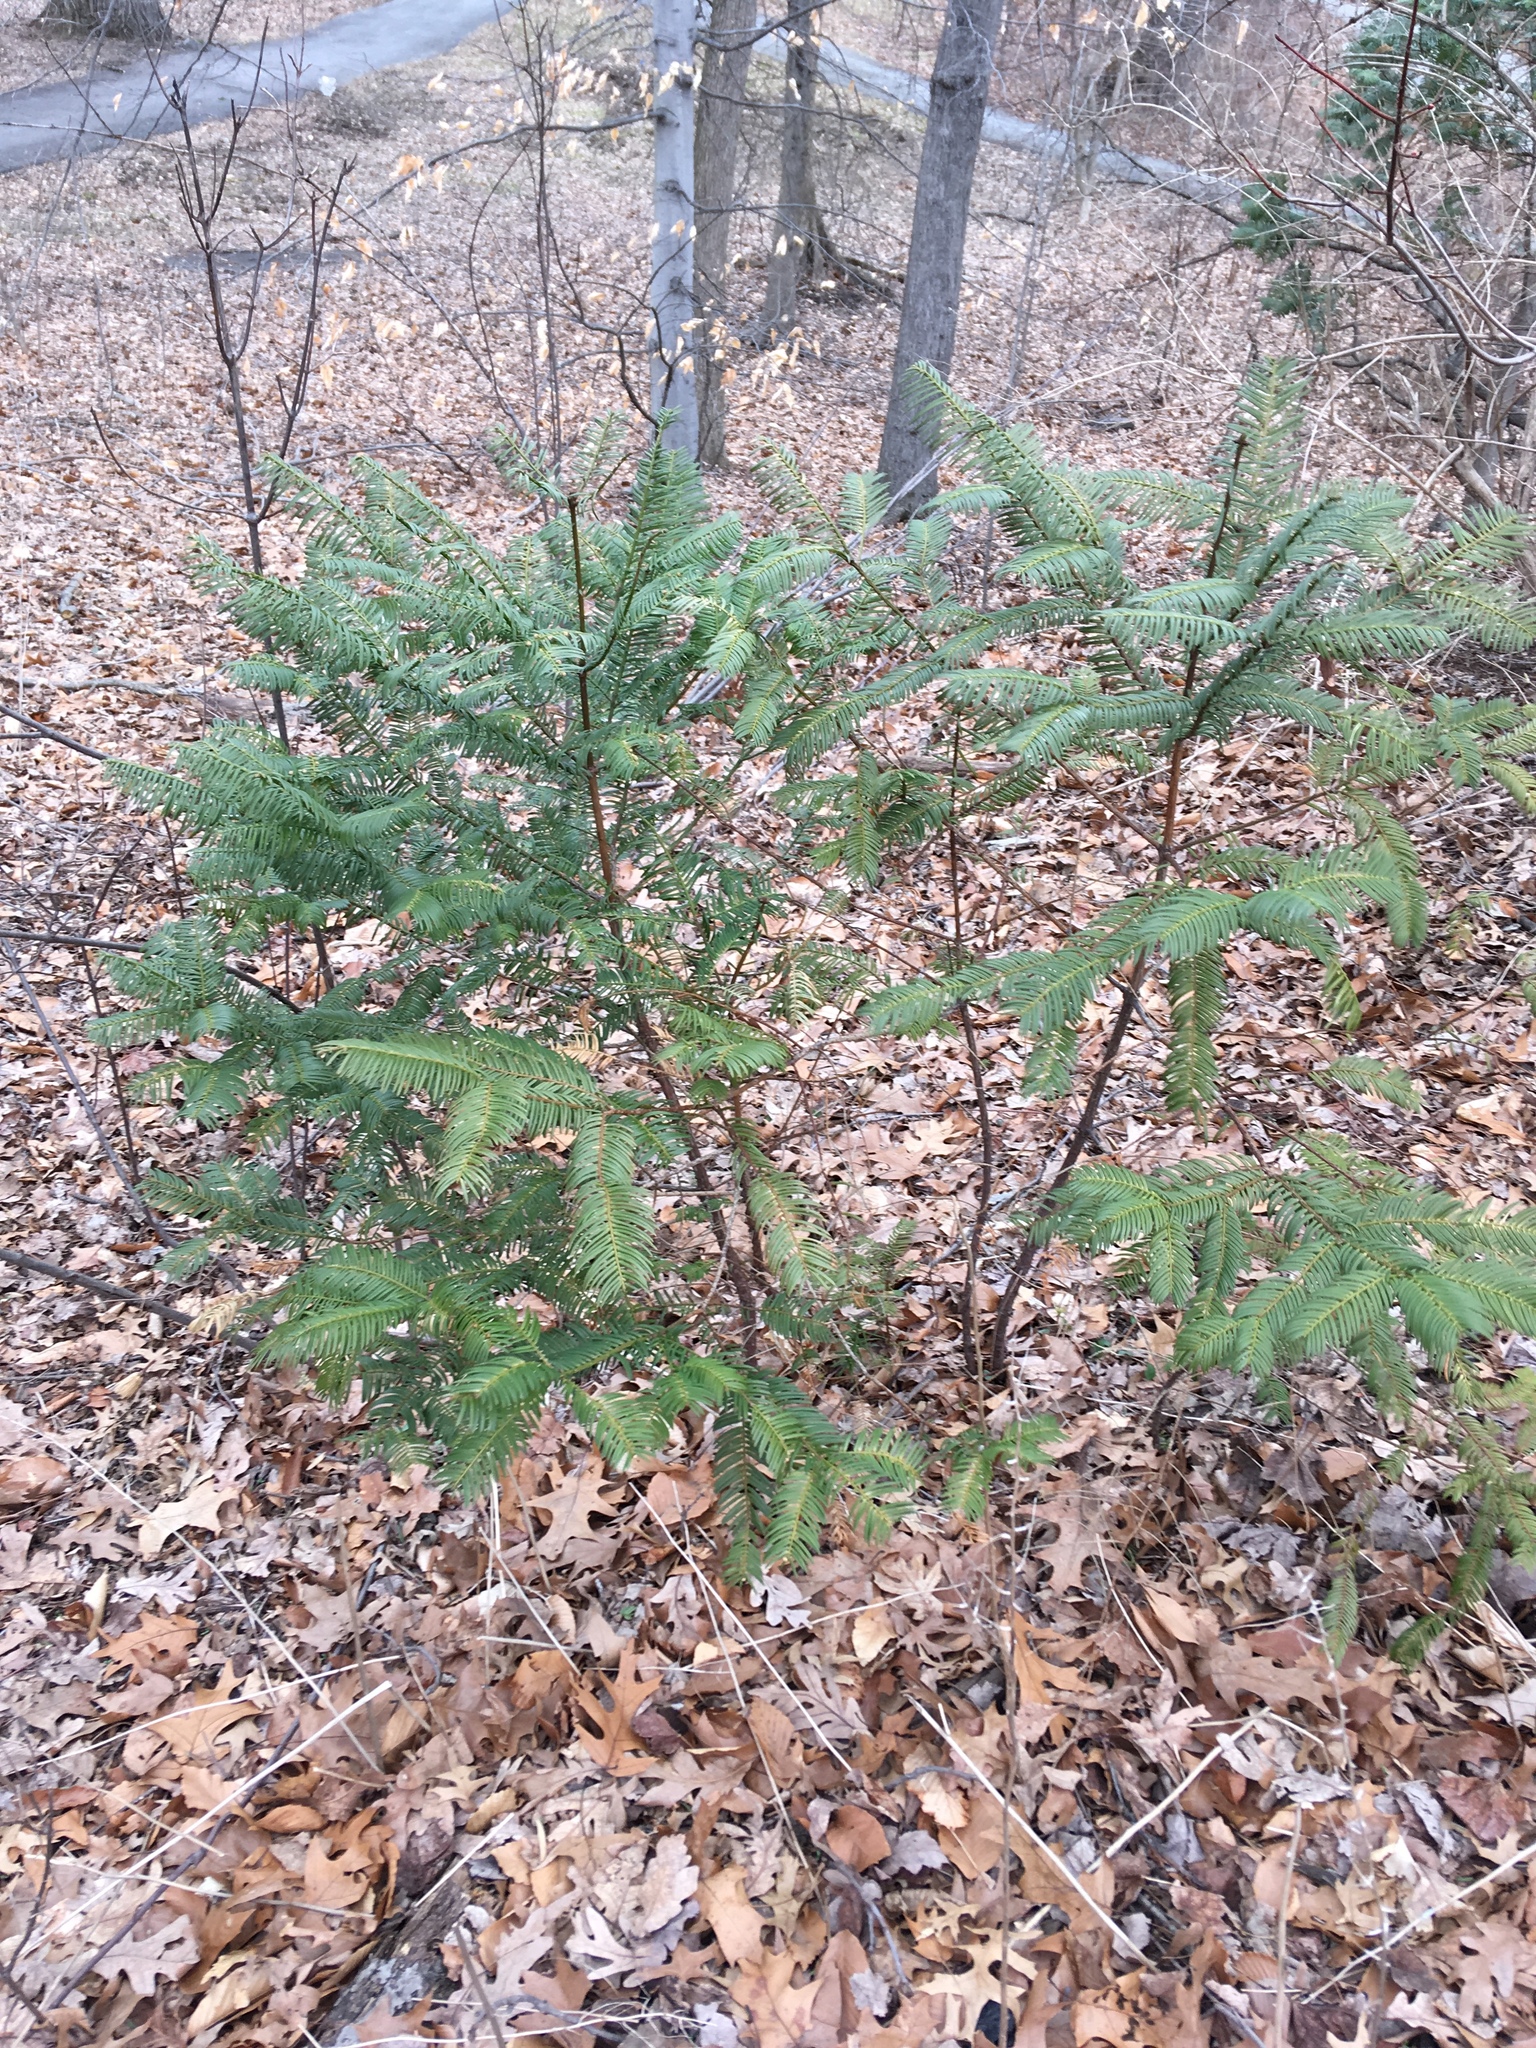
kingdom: Plantae
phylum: Tracheophyta
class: Pinopsida
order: Pinales
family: Cephalotaxaceae
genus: Cephalotaxus
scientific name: Cephalotaxus harringtonia
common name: Japanese plum-yew
